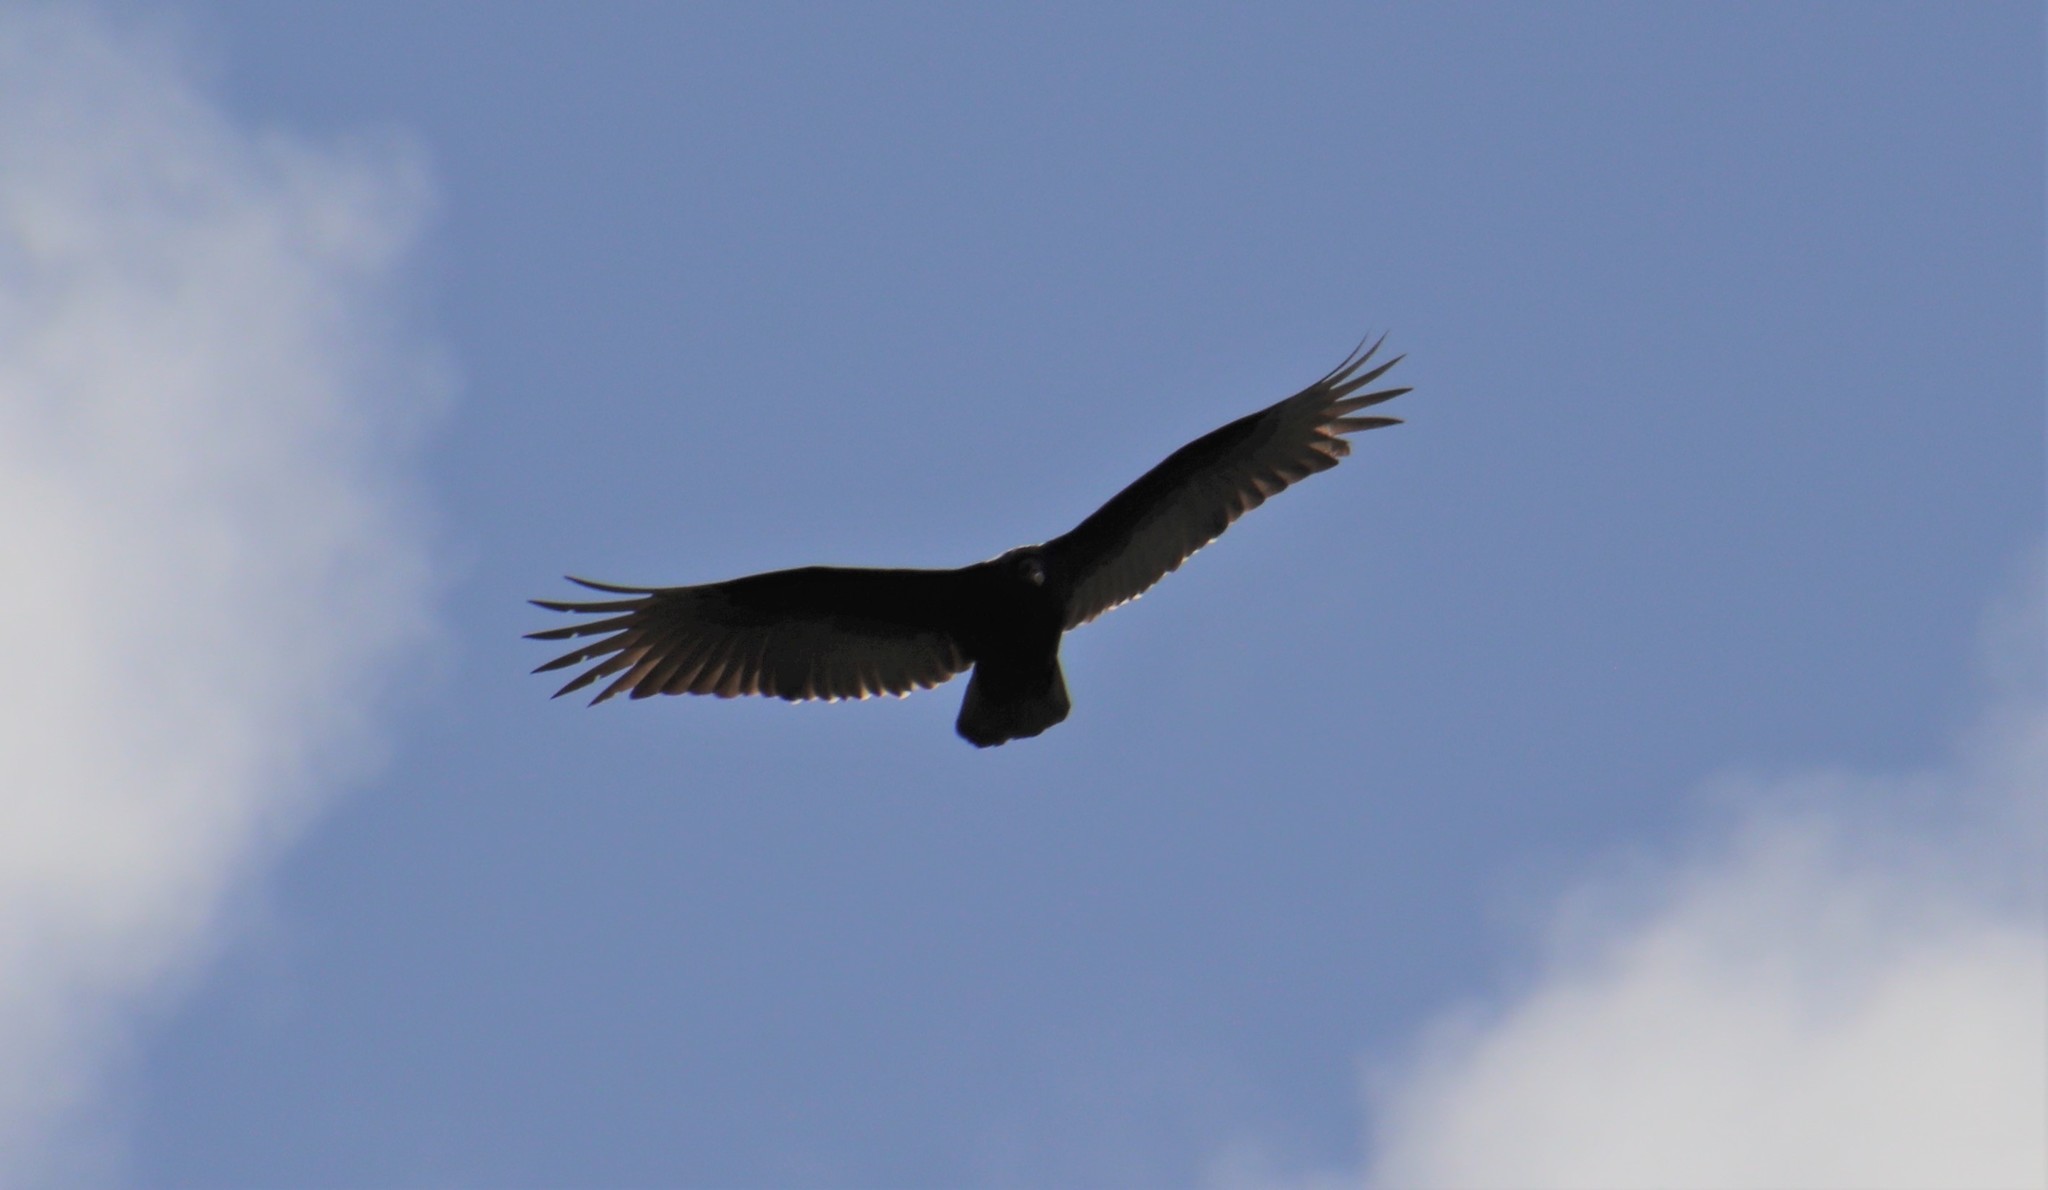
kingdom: Animalia
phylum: Chordata
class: Aves
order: Accipitriformes
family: Cathartidae
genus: Cathartes
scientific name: Cathartes aura
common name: Turkey vulture
